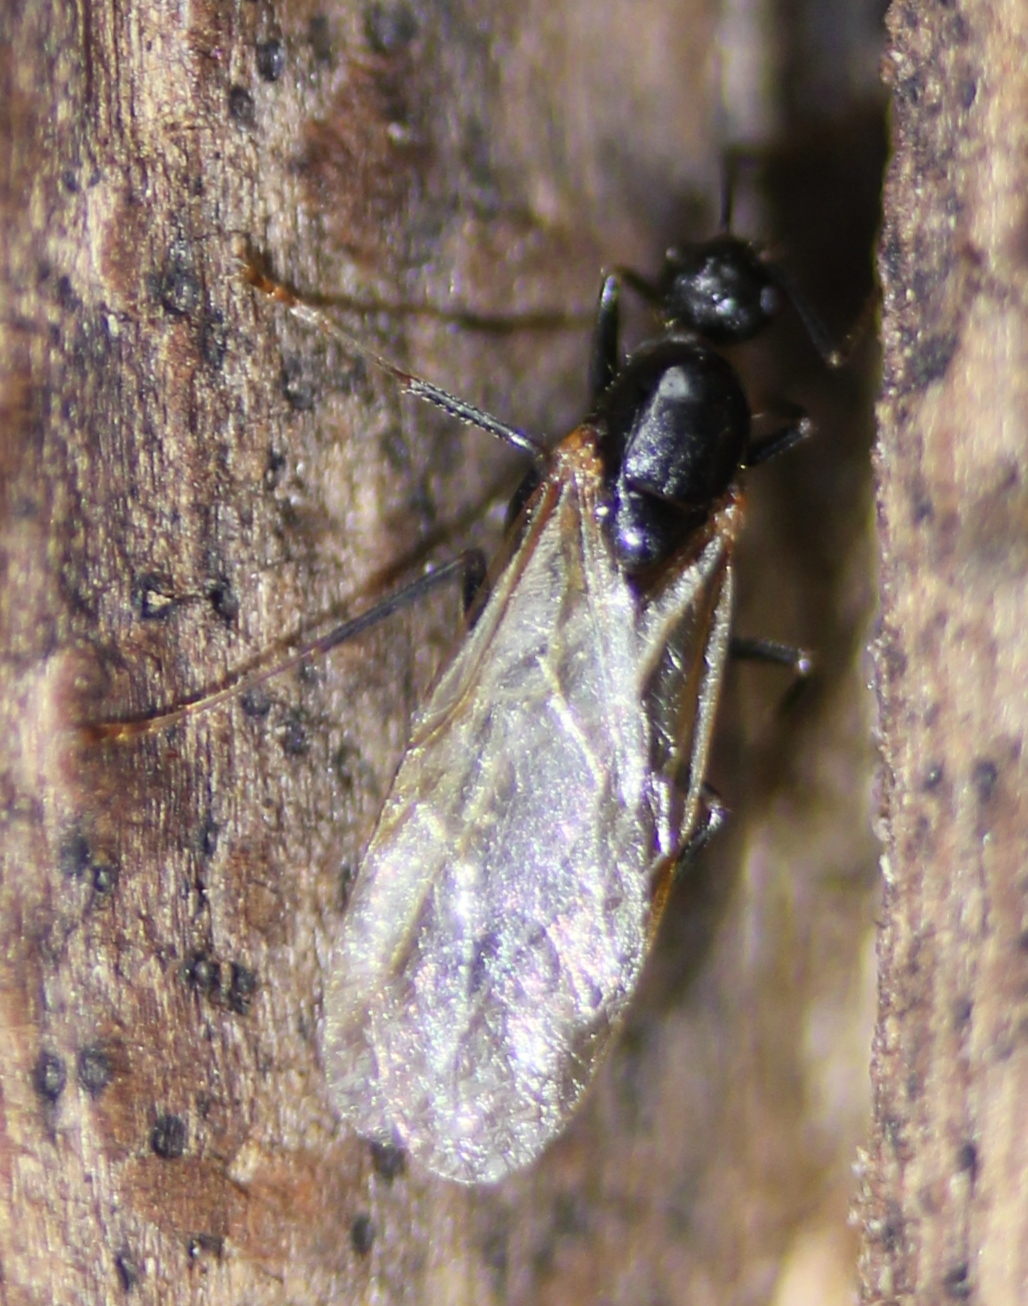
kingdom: Animalia
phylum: Arthropoda
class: Insecta
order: Hymenoptera
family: Formicidae
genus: Camponotus
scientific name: Camponotus subbarbatus
